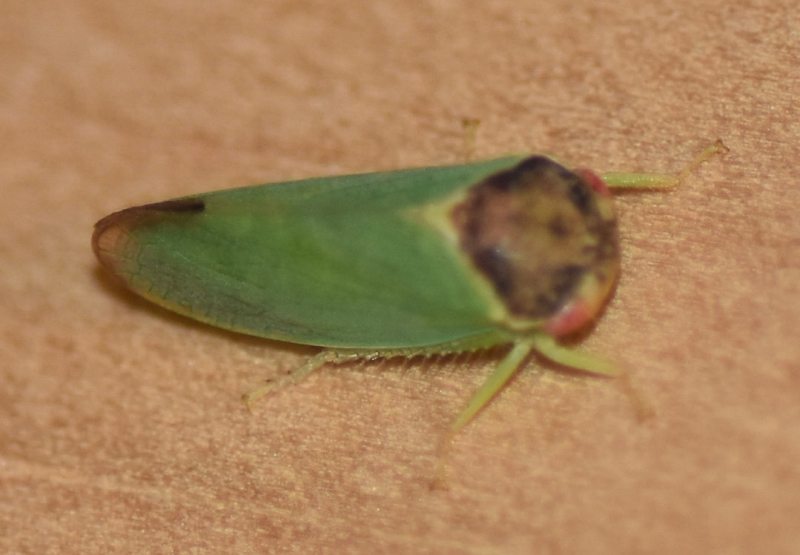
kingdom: Animalia
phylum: Arthropoda
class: Insecta
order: Hemiptera
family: Cicadellidae
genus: Iassus
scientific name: Iassus lanio
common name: Leafhopper
